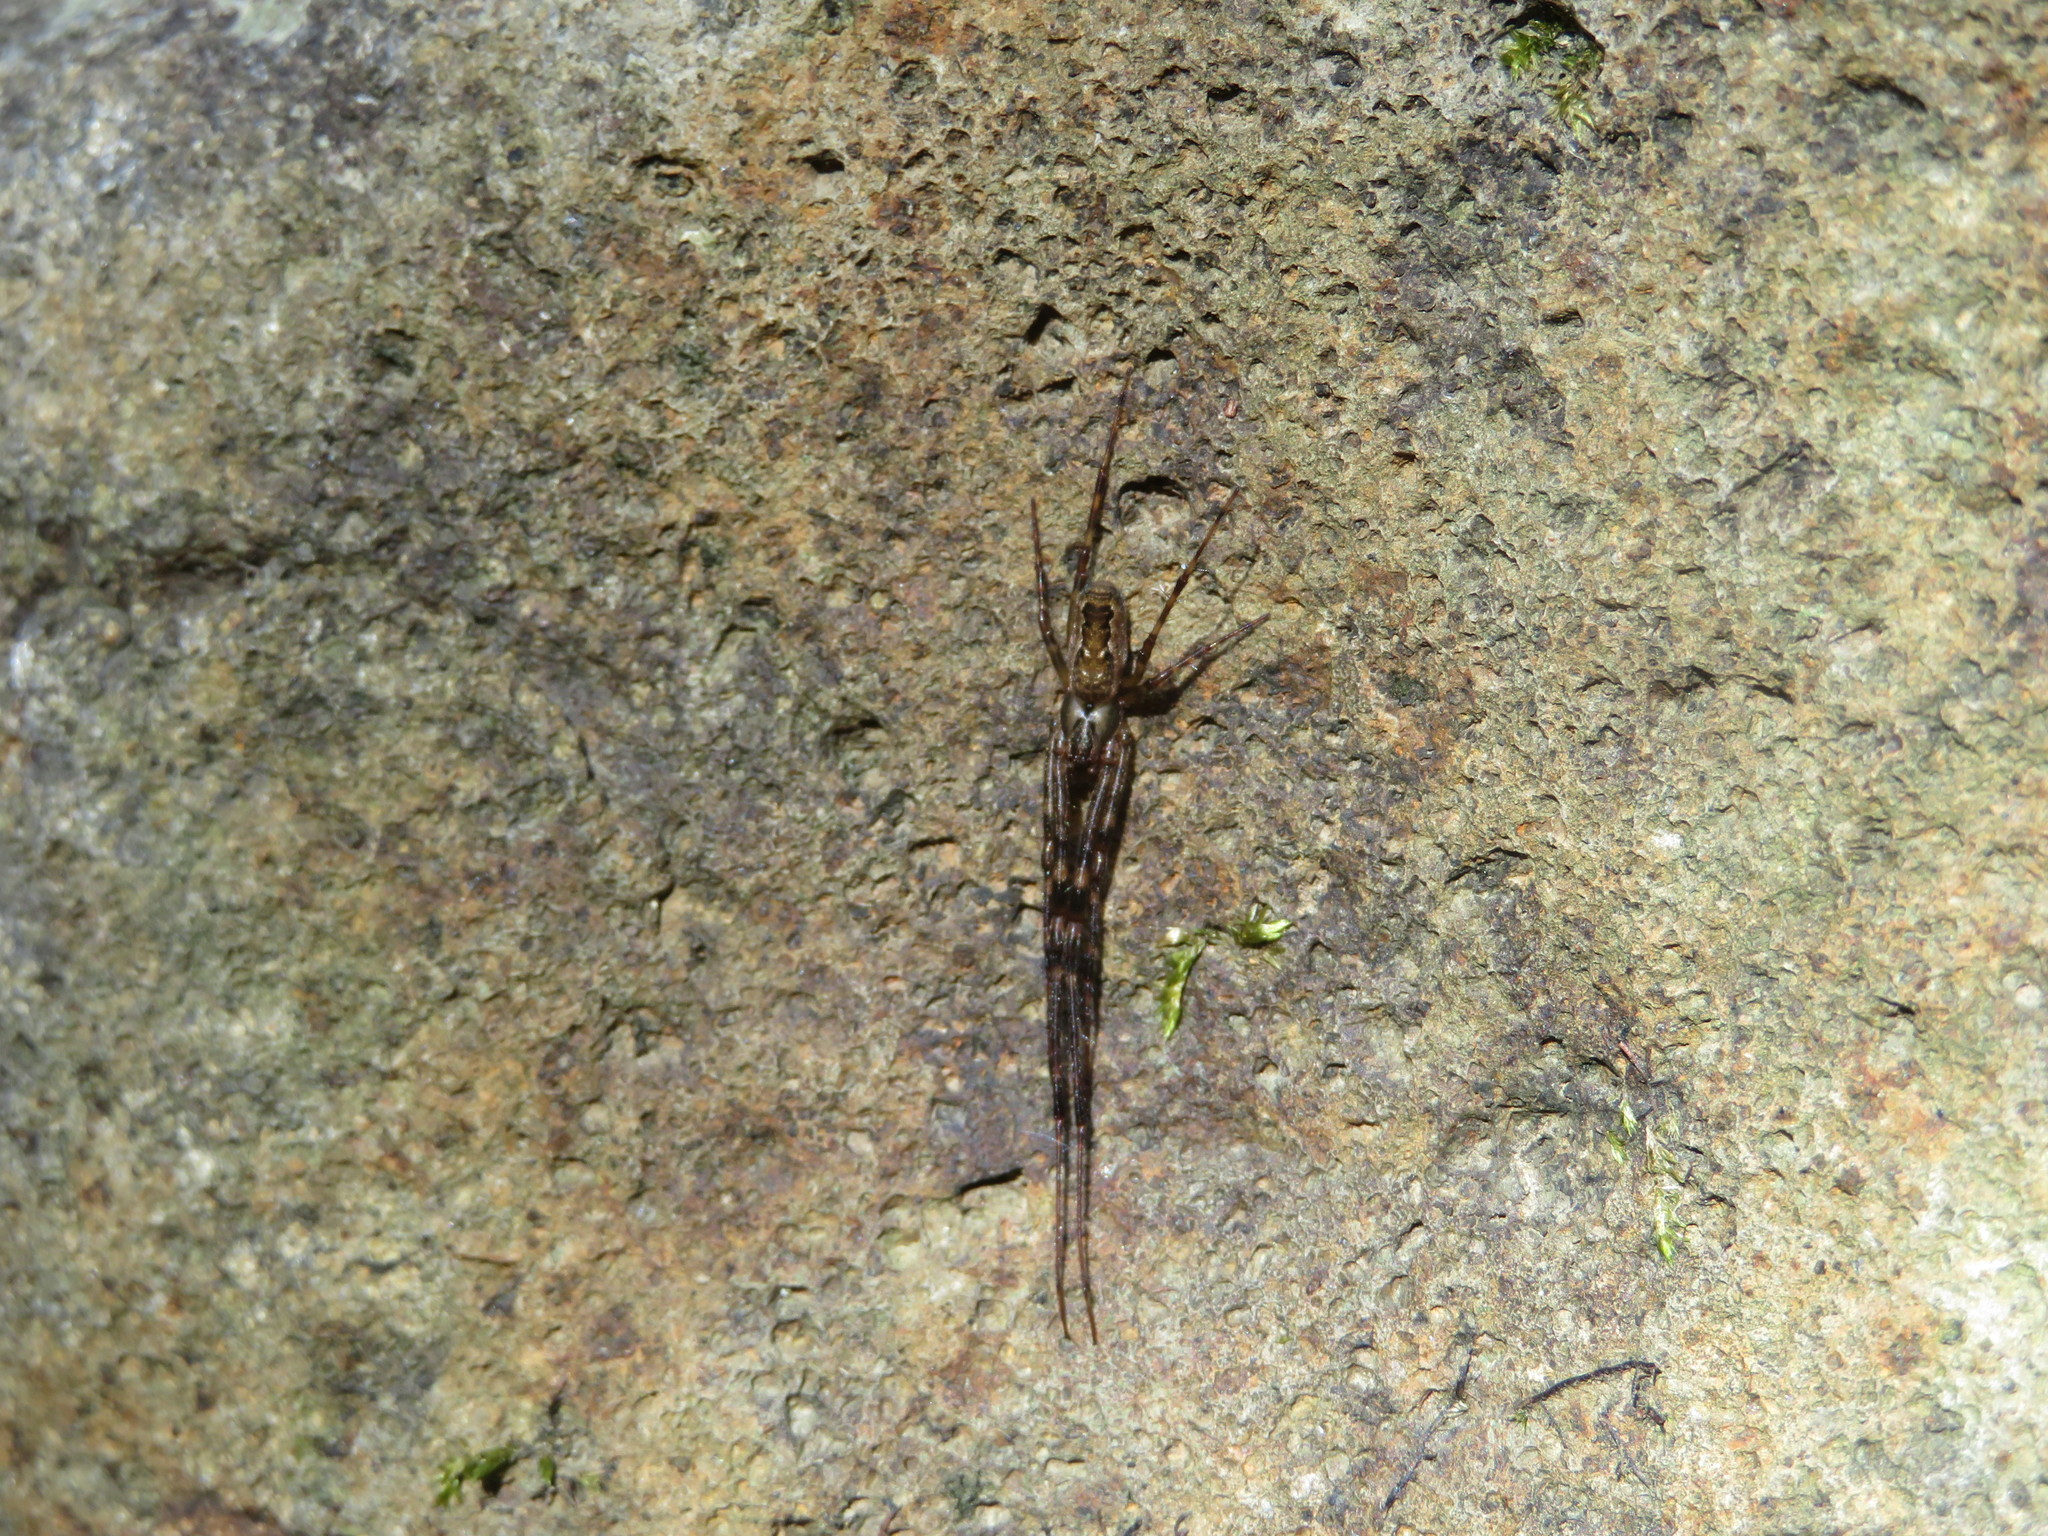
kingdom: Animalia
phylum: Arthropoda
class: Arachnida
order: Araneae
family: Tetragnathidae
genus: Nanometa
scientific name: Nanometa lagenifera
